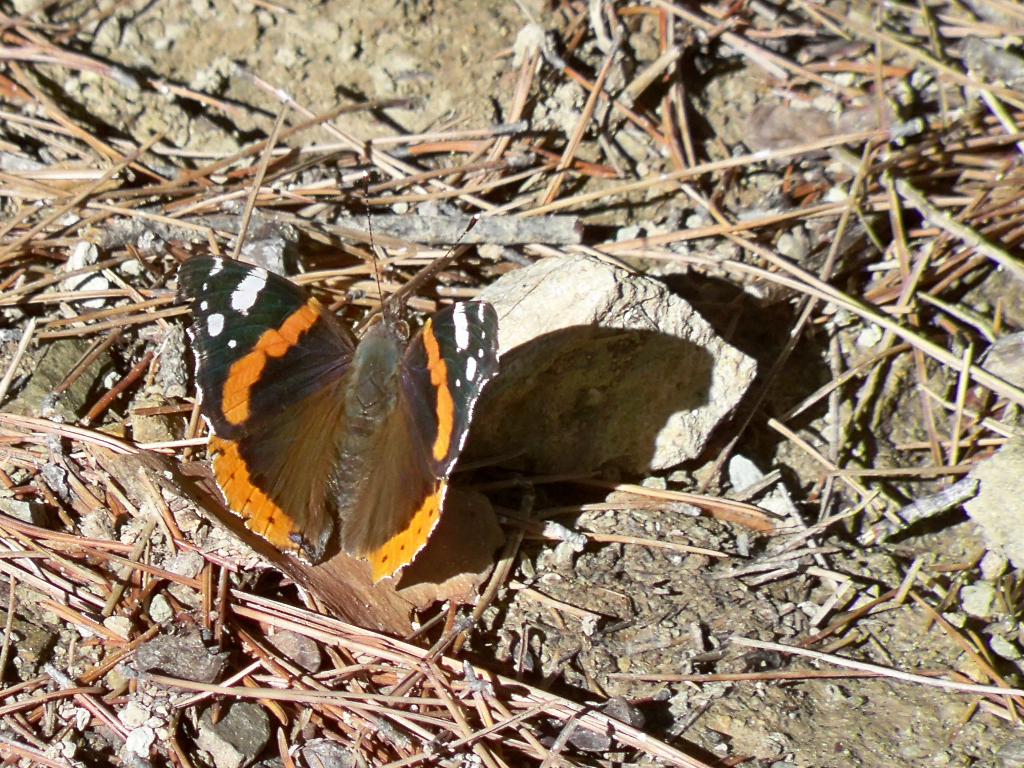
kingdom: Animalia
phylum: Arthropoda
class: Insecta
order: Lepidoptera
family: Nymphalidae
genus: Vanessa
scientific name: Vanessa atalanta
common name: Red admiral
